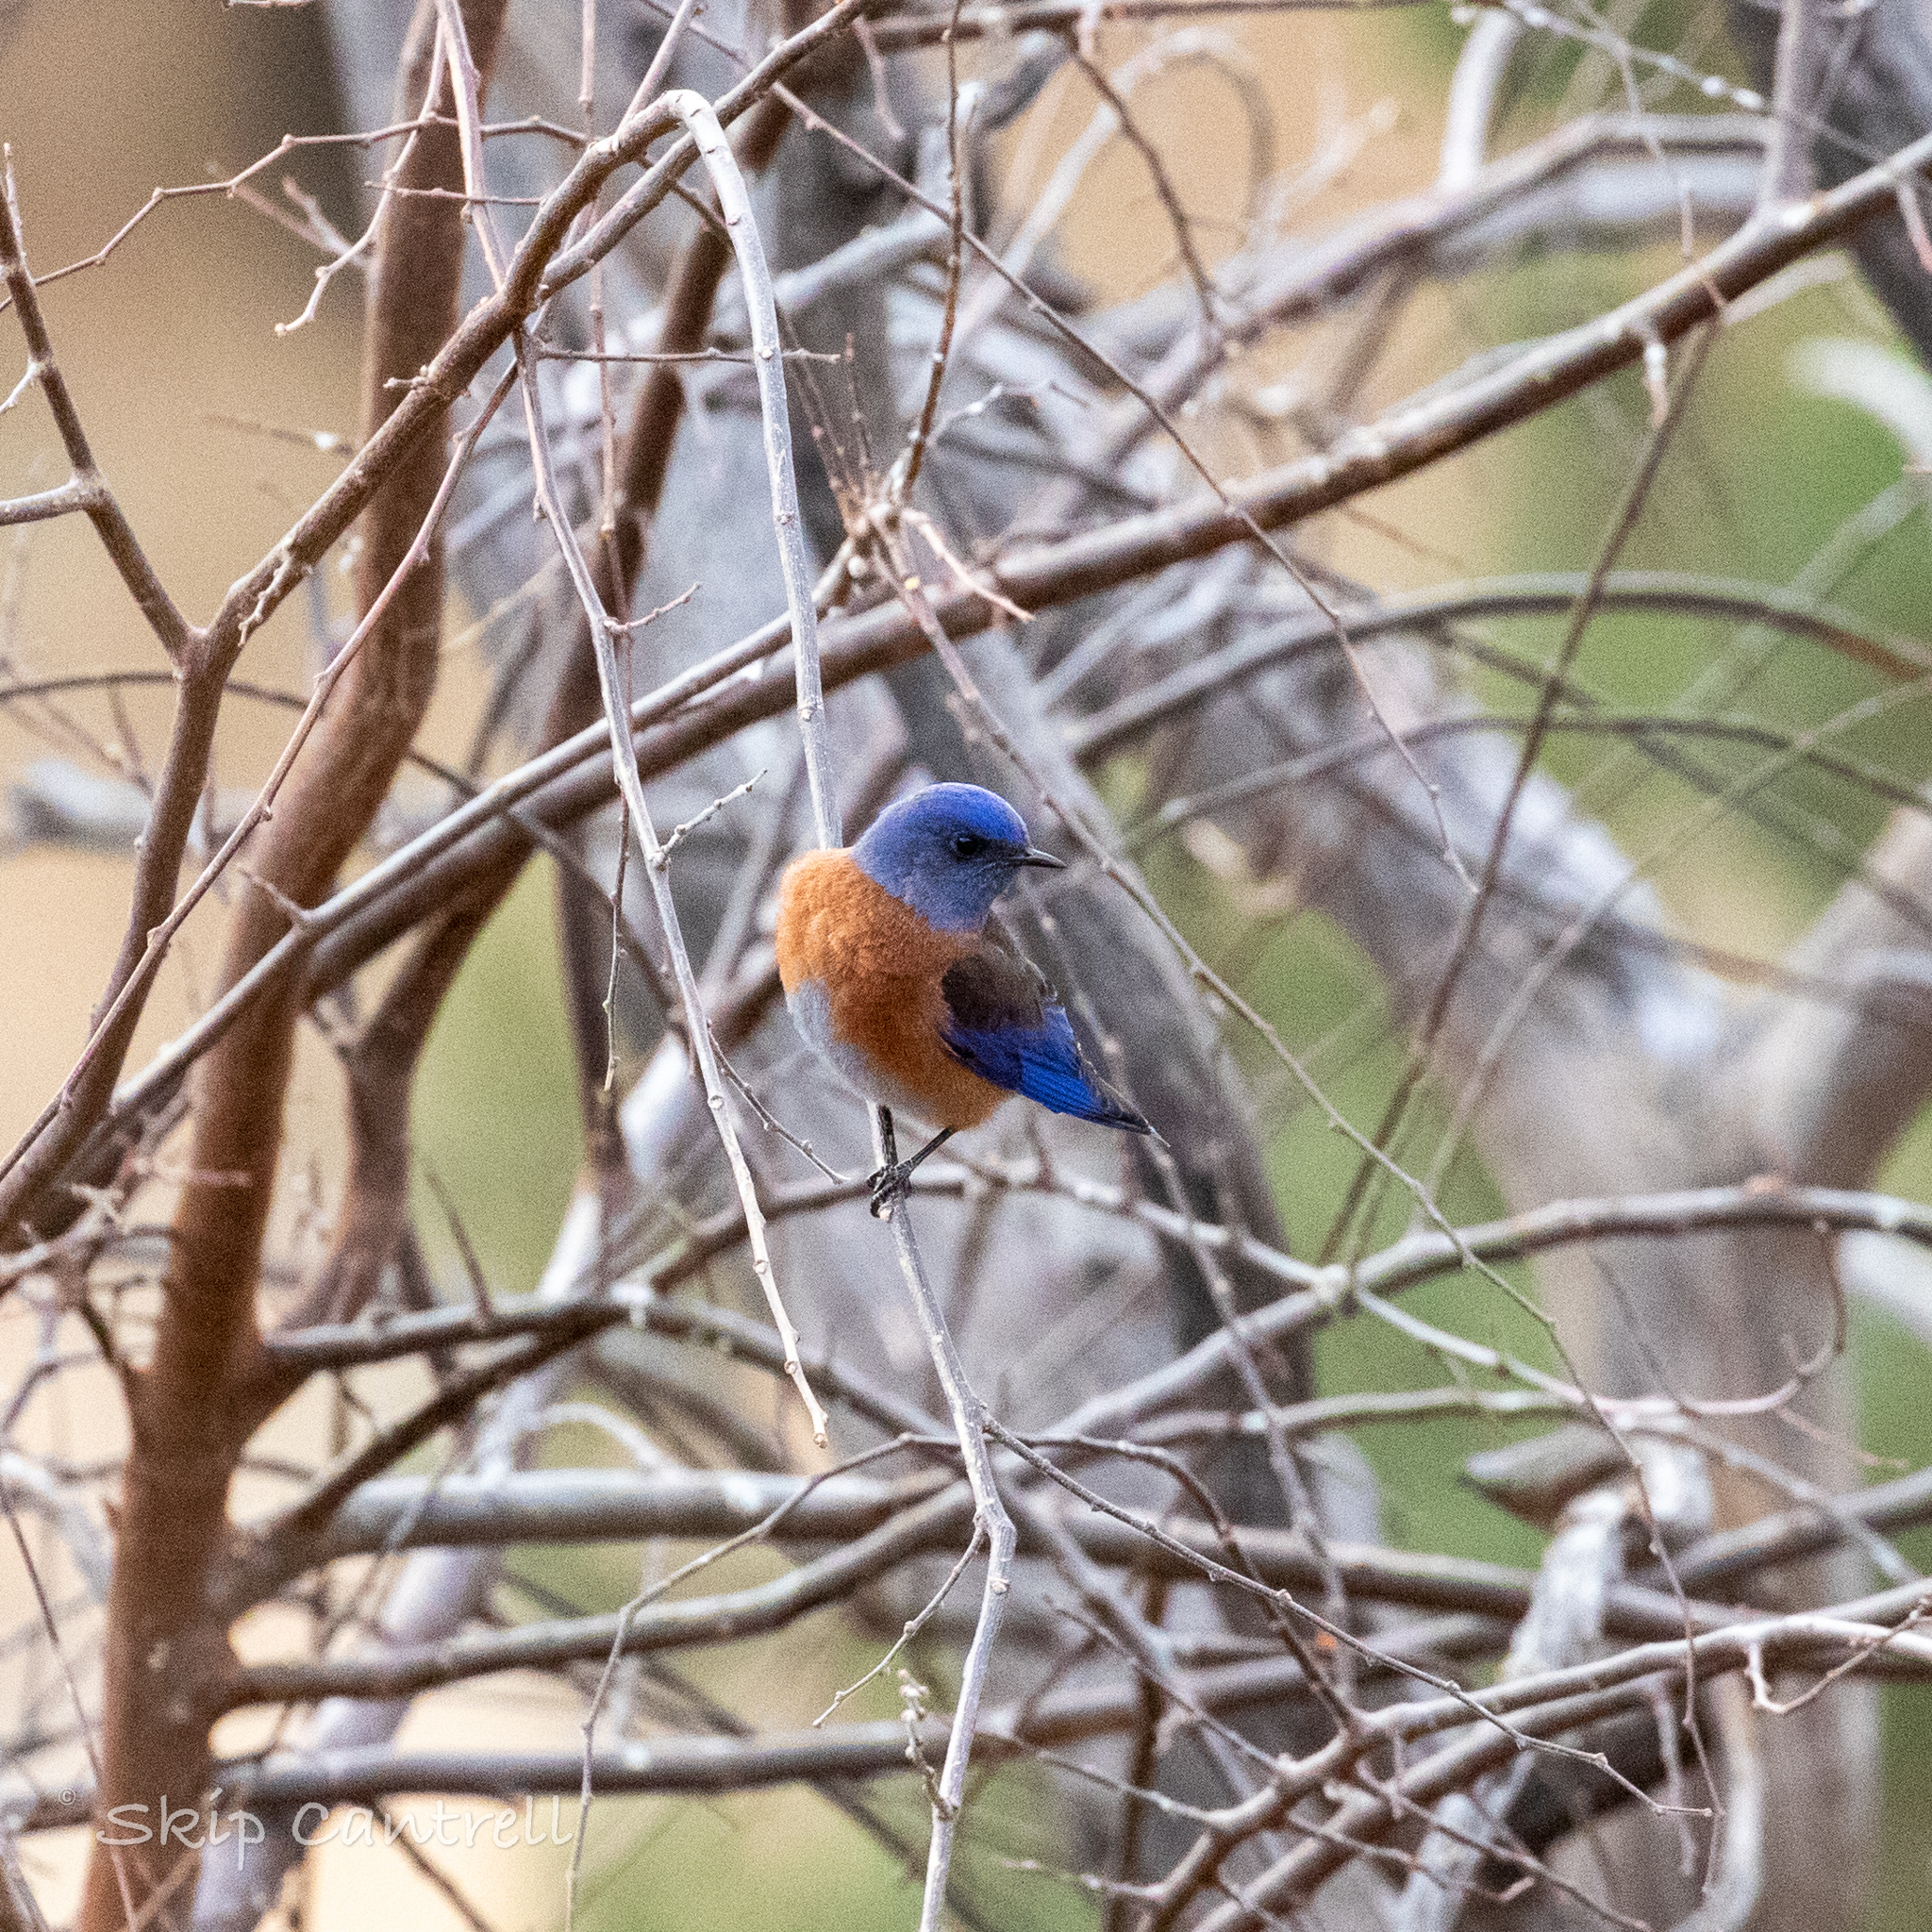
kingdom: Animalia
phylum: Chordata
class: Aves
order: Passeriformes
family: Turdidae
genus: Sialia
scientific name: Sialia mexicana
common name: Western bluebird
